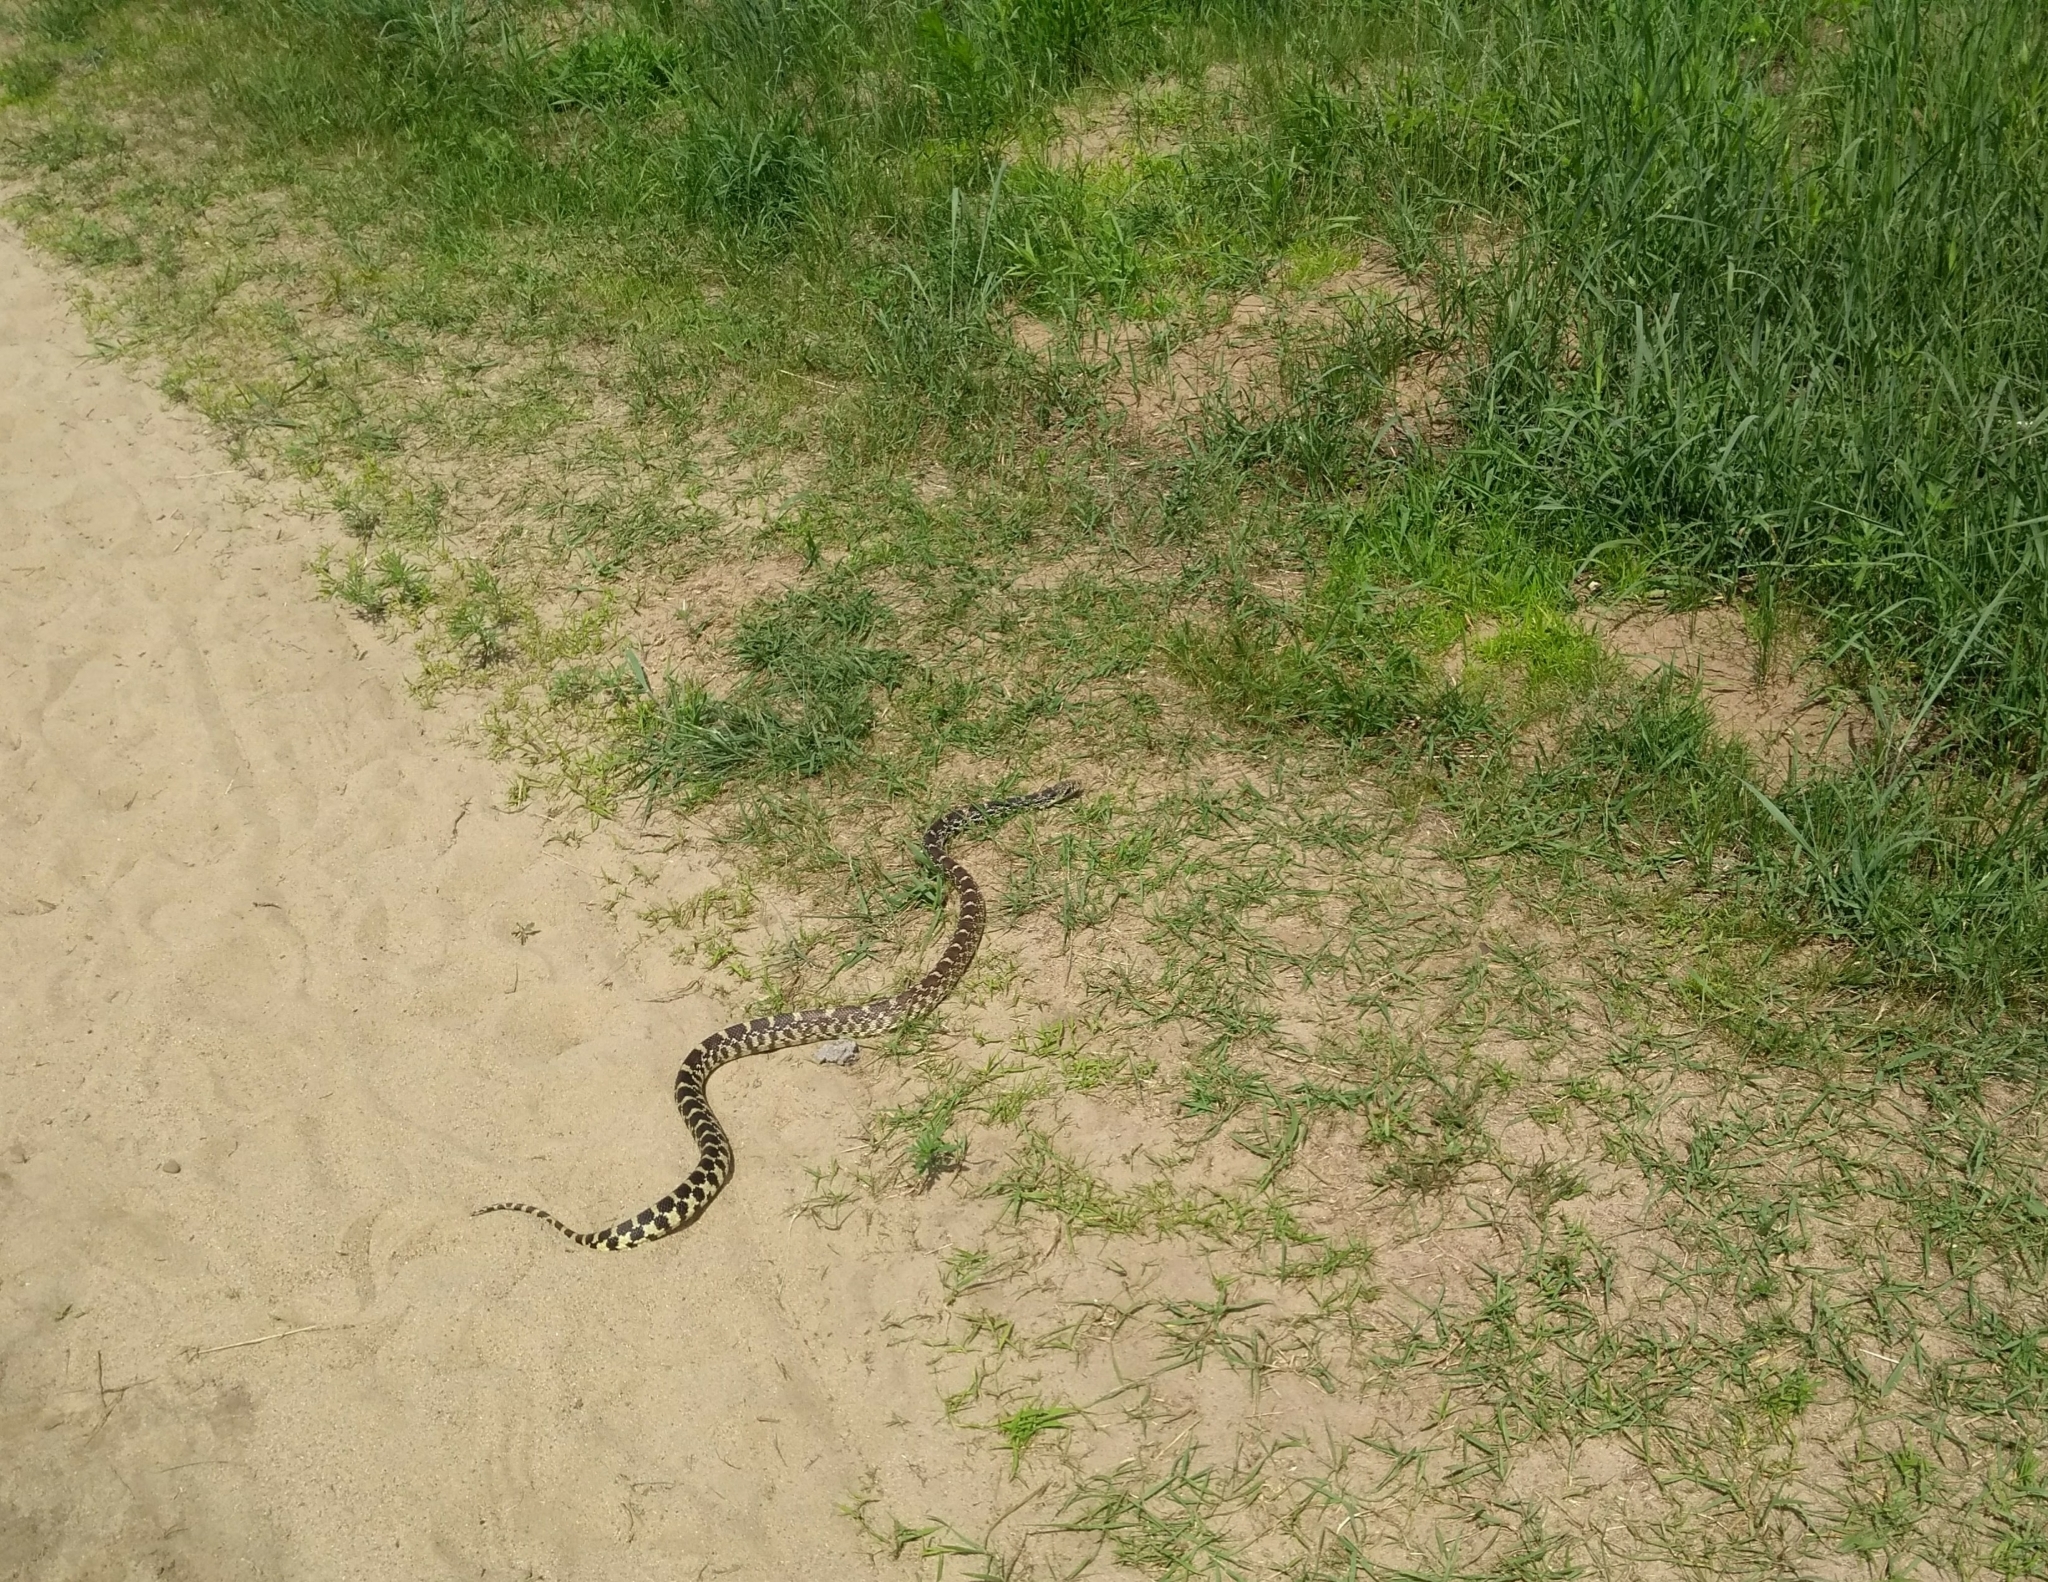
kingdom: Animalia
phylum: Chordata
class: Squamata
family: Colubridae
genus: Pituophis
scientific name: Pituophis catenifer
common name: Gopher snake
